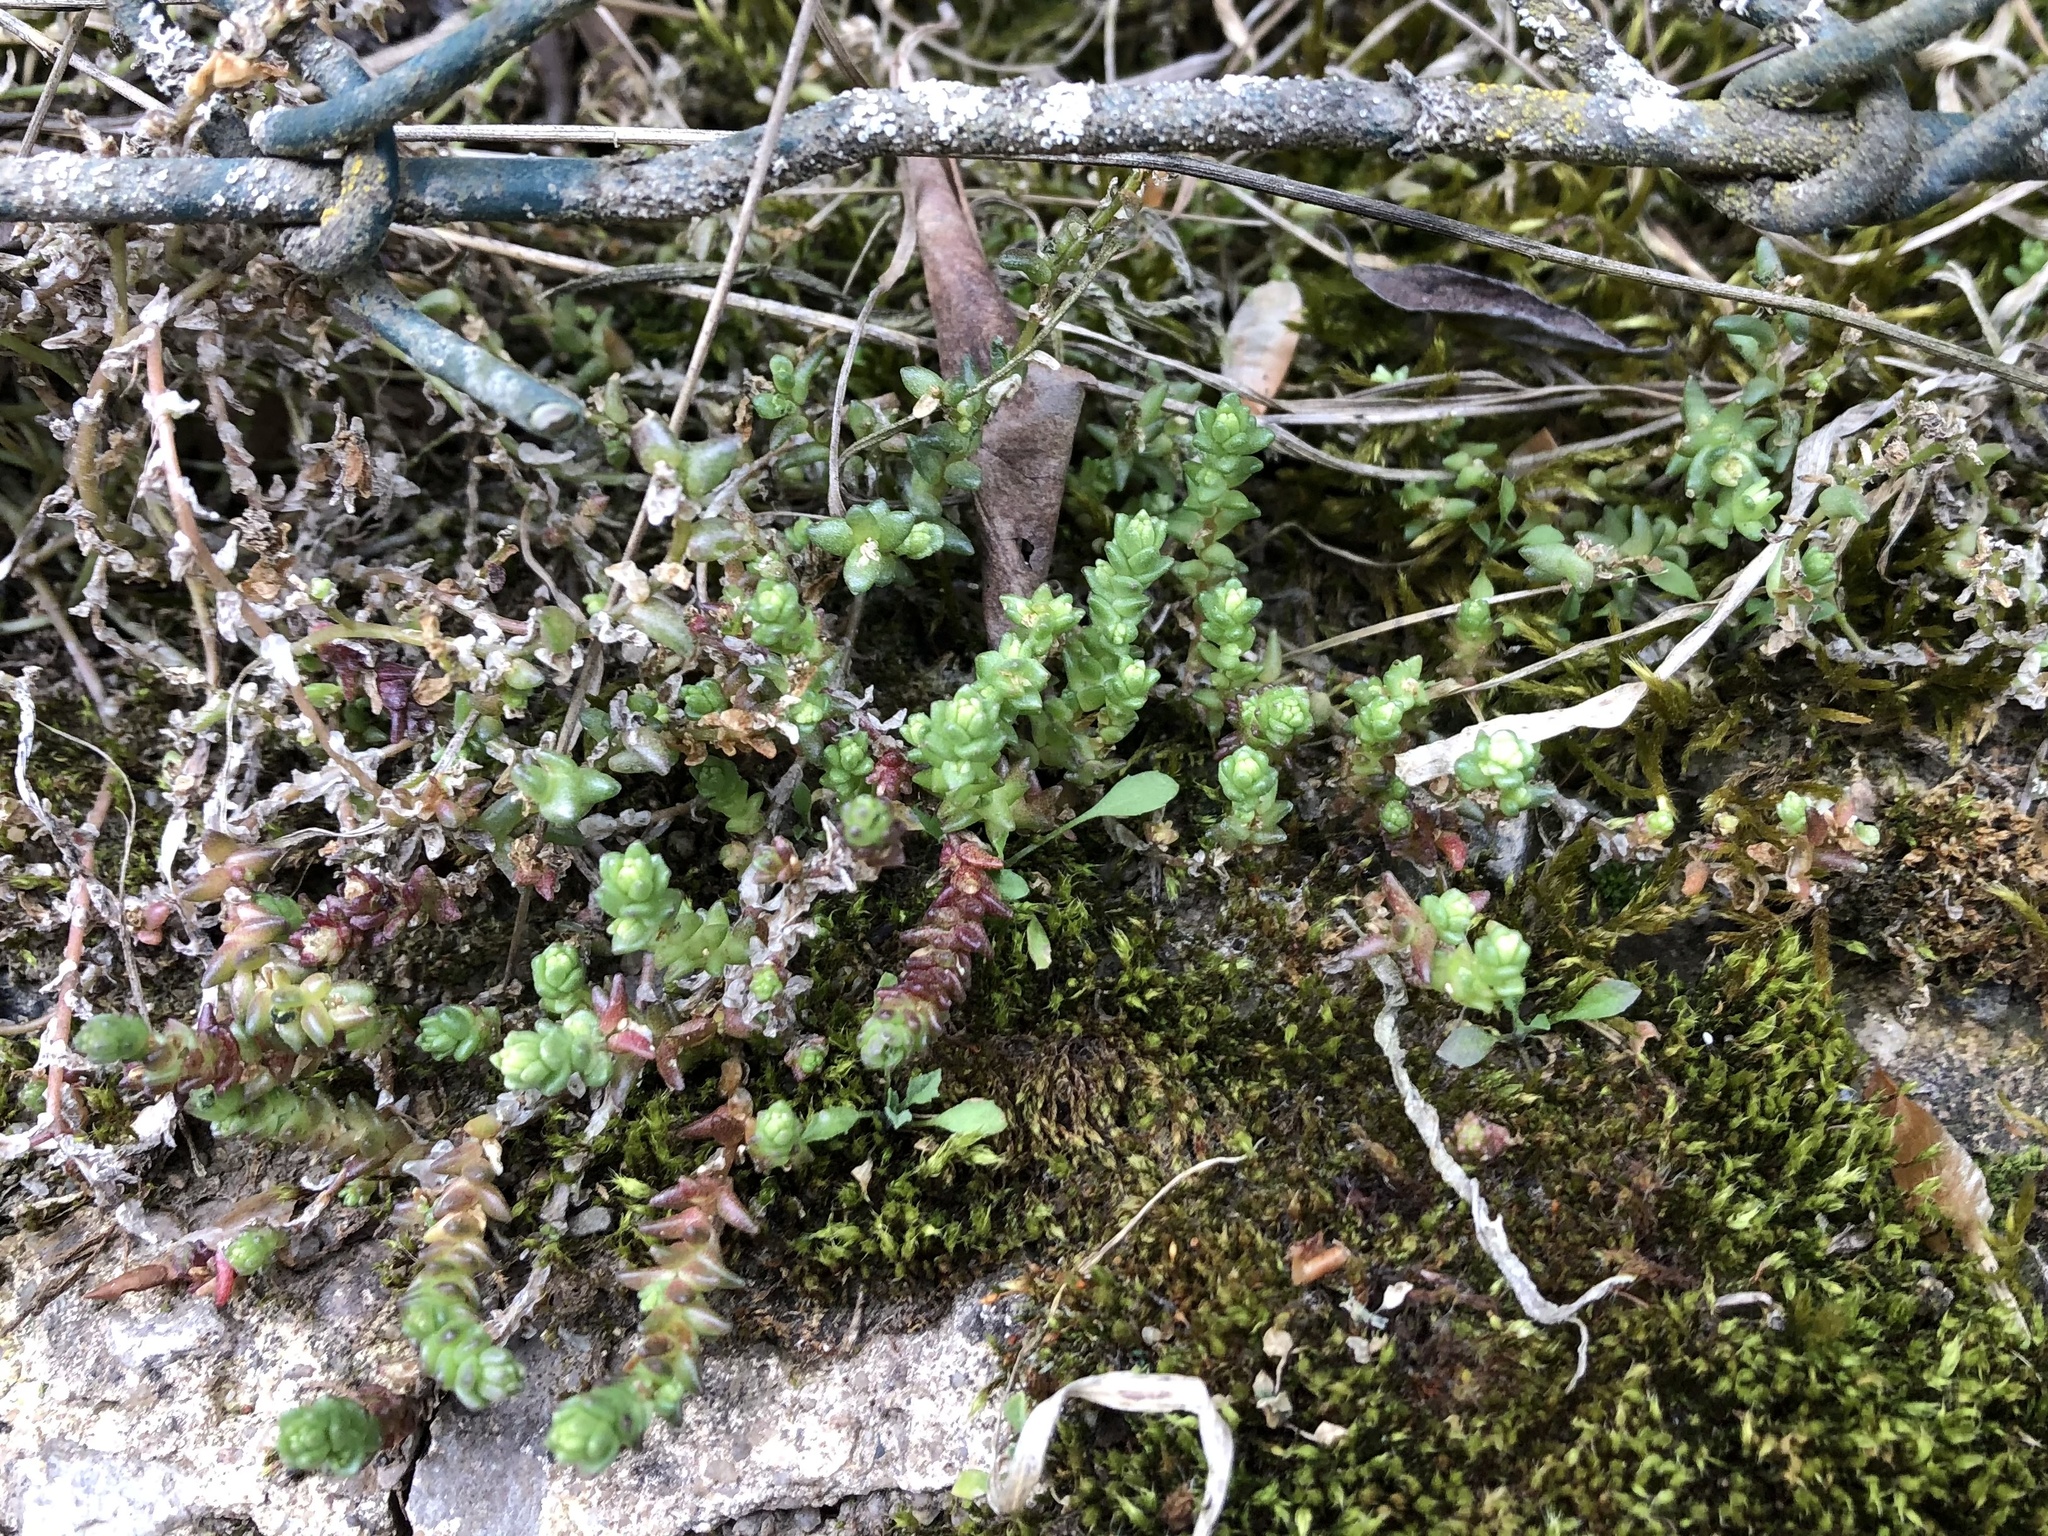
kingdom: Plantae
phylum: Tracheophyta
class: Magnoliopsida
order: Saxifragales
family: Crassulaceae
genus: Sedum
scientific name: Sedum acre
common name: Biting stonecrop
